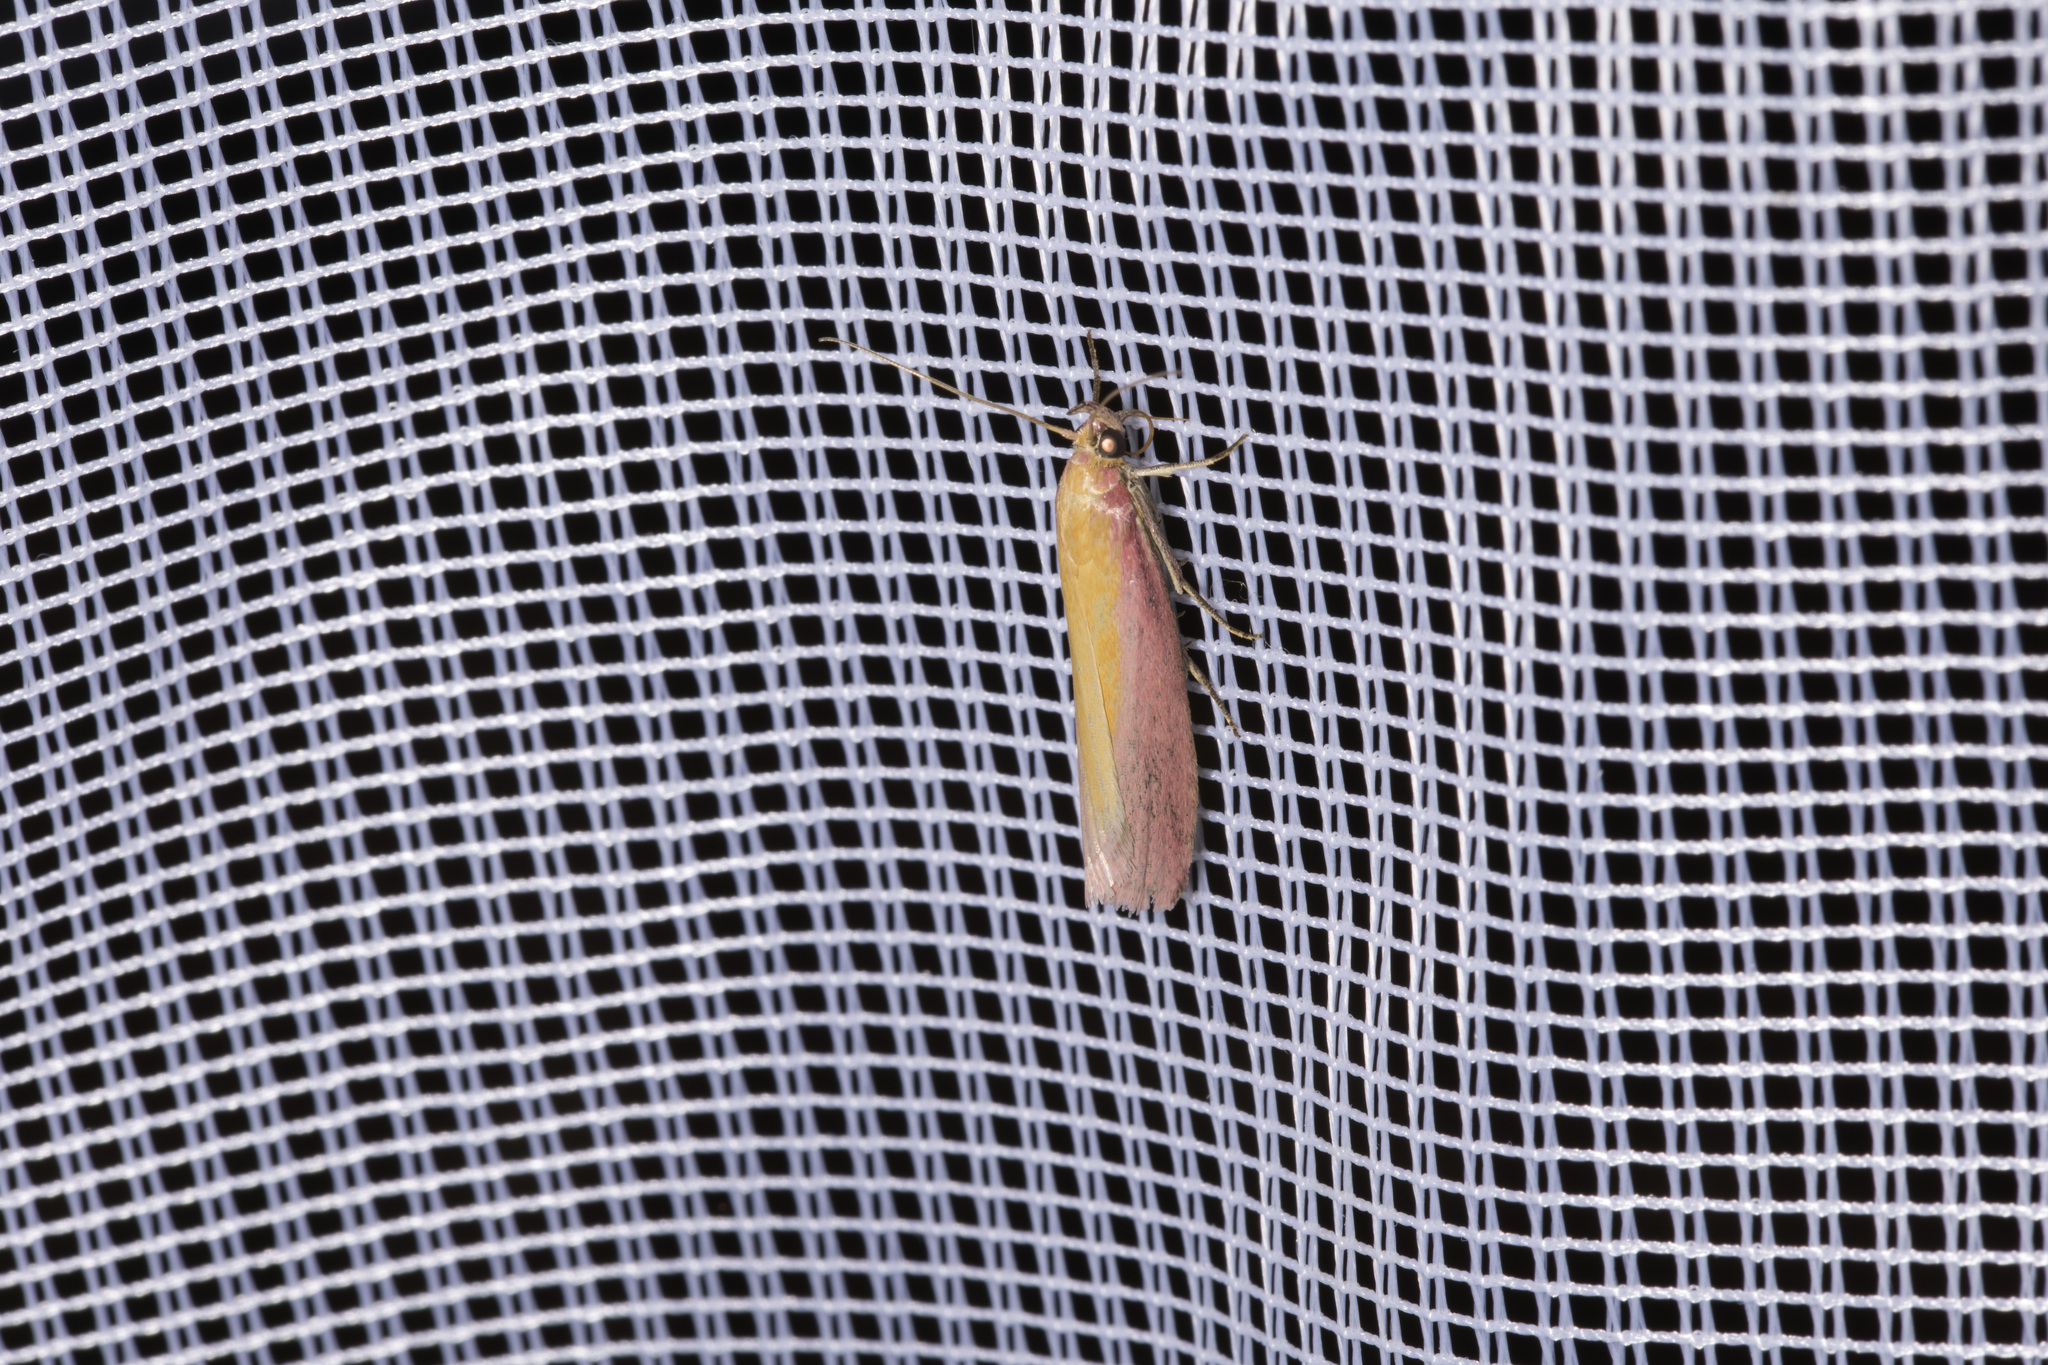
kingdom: Animalia
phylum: Arthropoda
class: Insecta
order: Lepidoptera
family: Pyralidae
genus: Oncocera
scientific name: Oncocera semirubella
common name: Rosy-striped knot-horn
